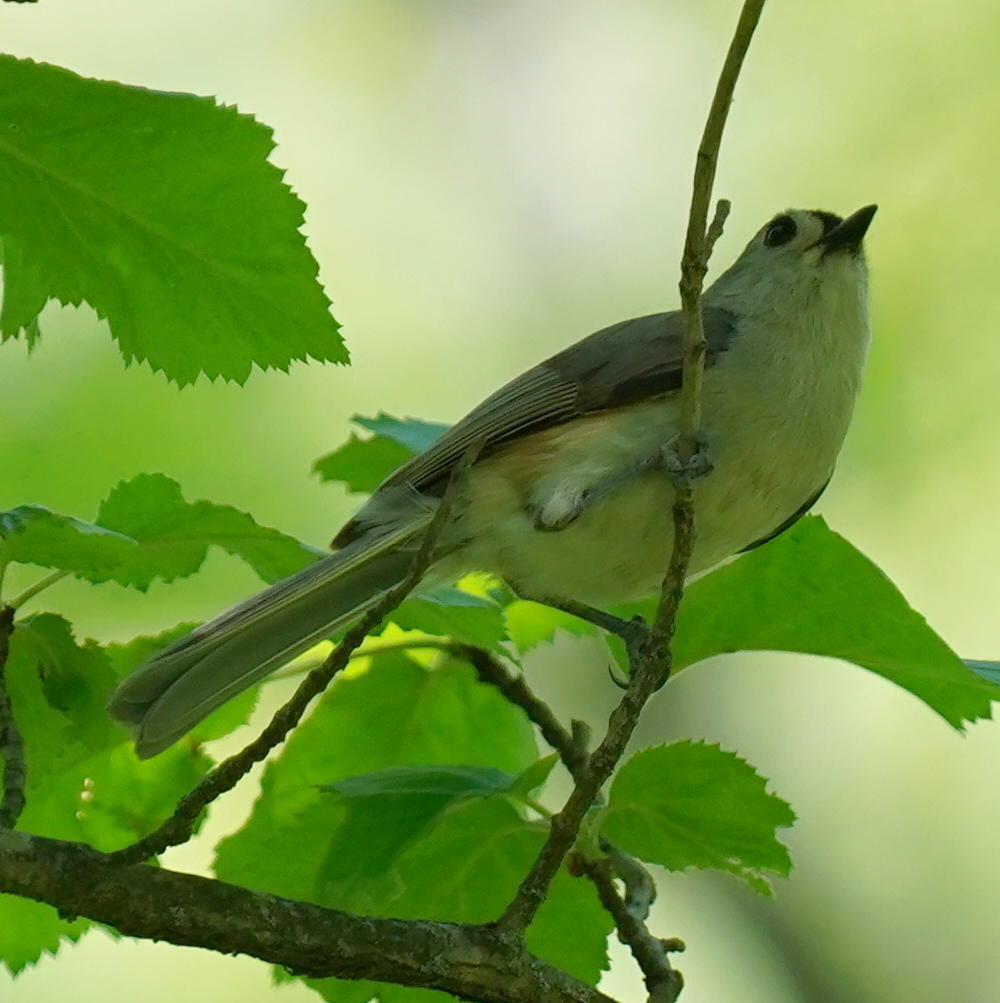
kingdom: Animalia
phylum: Chordata
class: Aves
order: Passeriformes
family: Paridae
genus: Baeolophus
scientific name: Baeolophus bicolor
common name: Tufted titmouse
